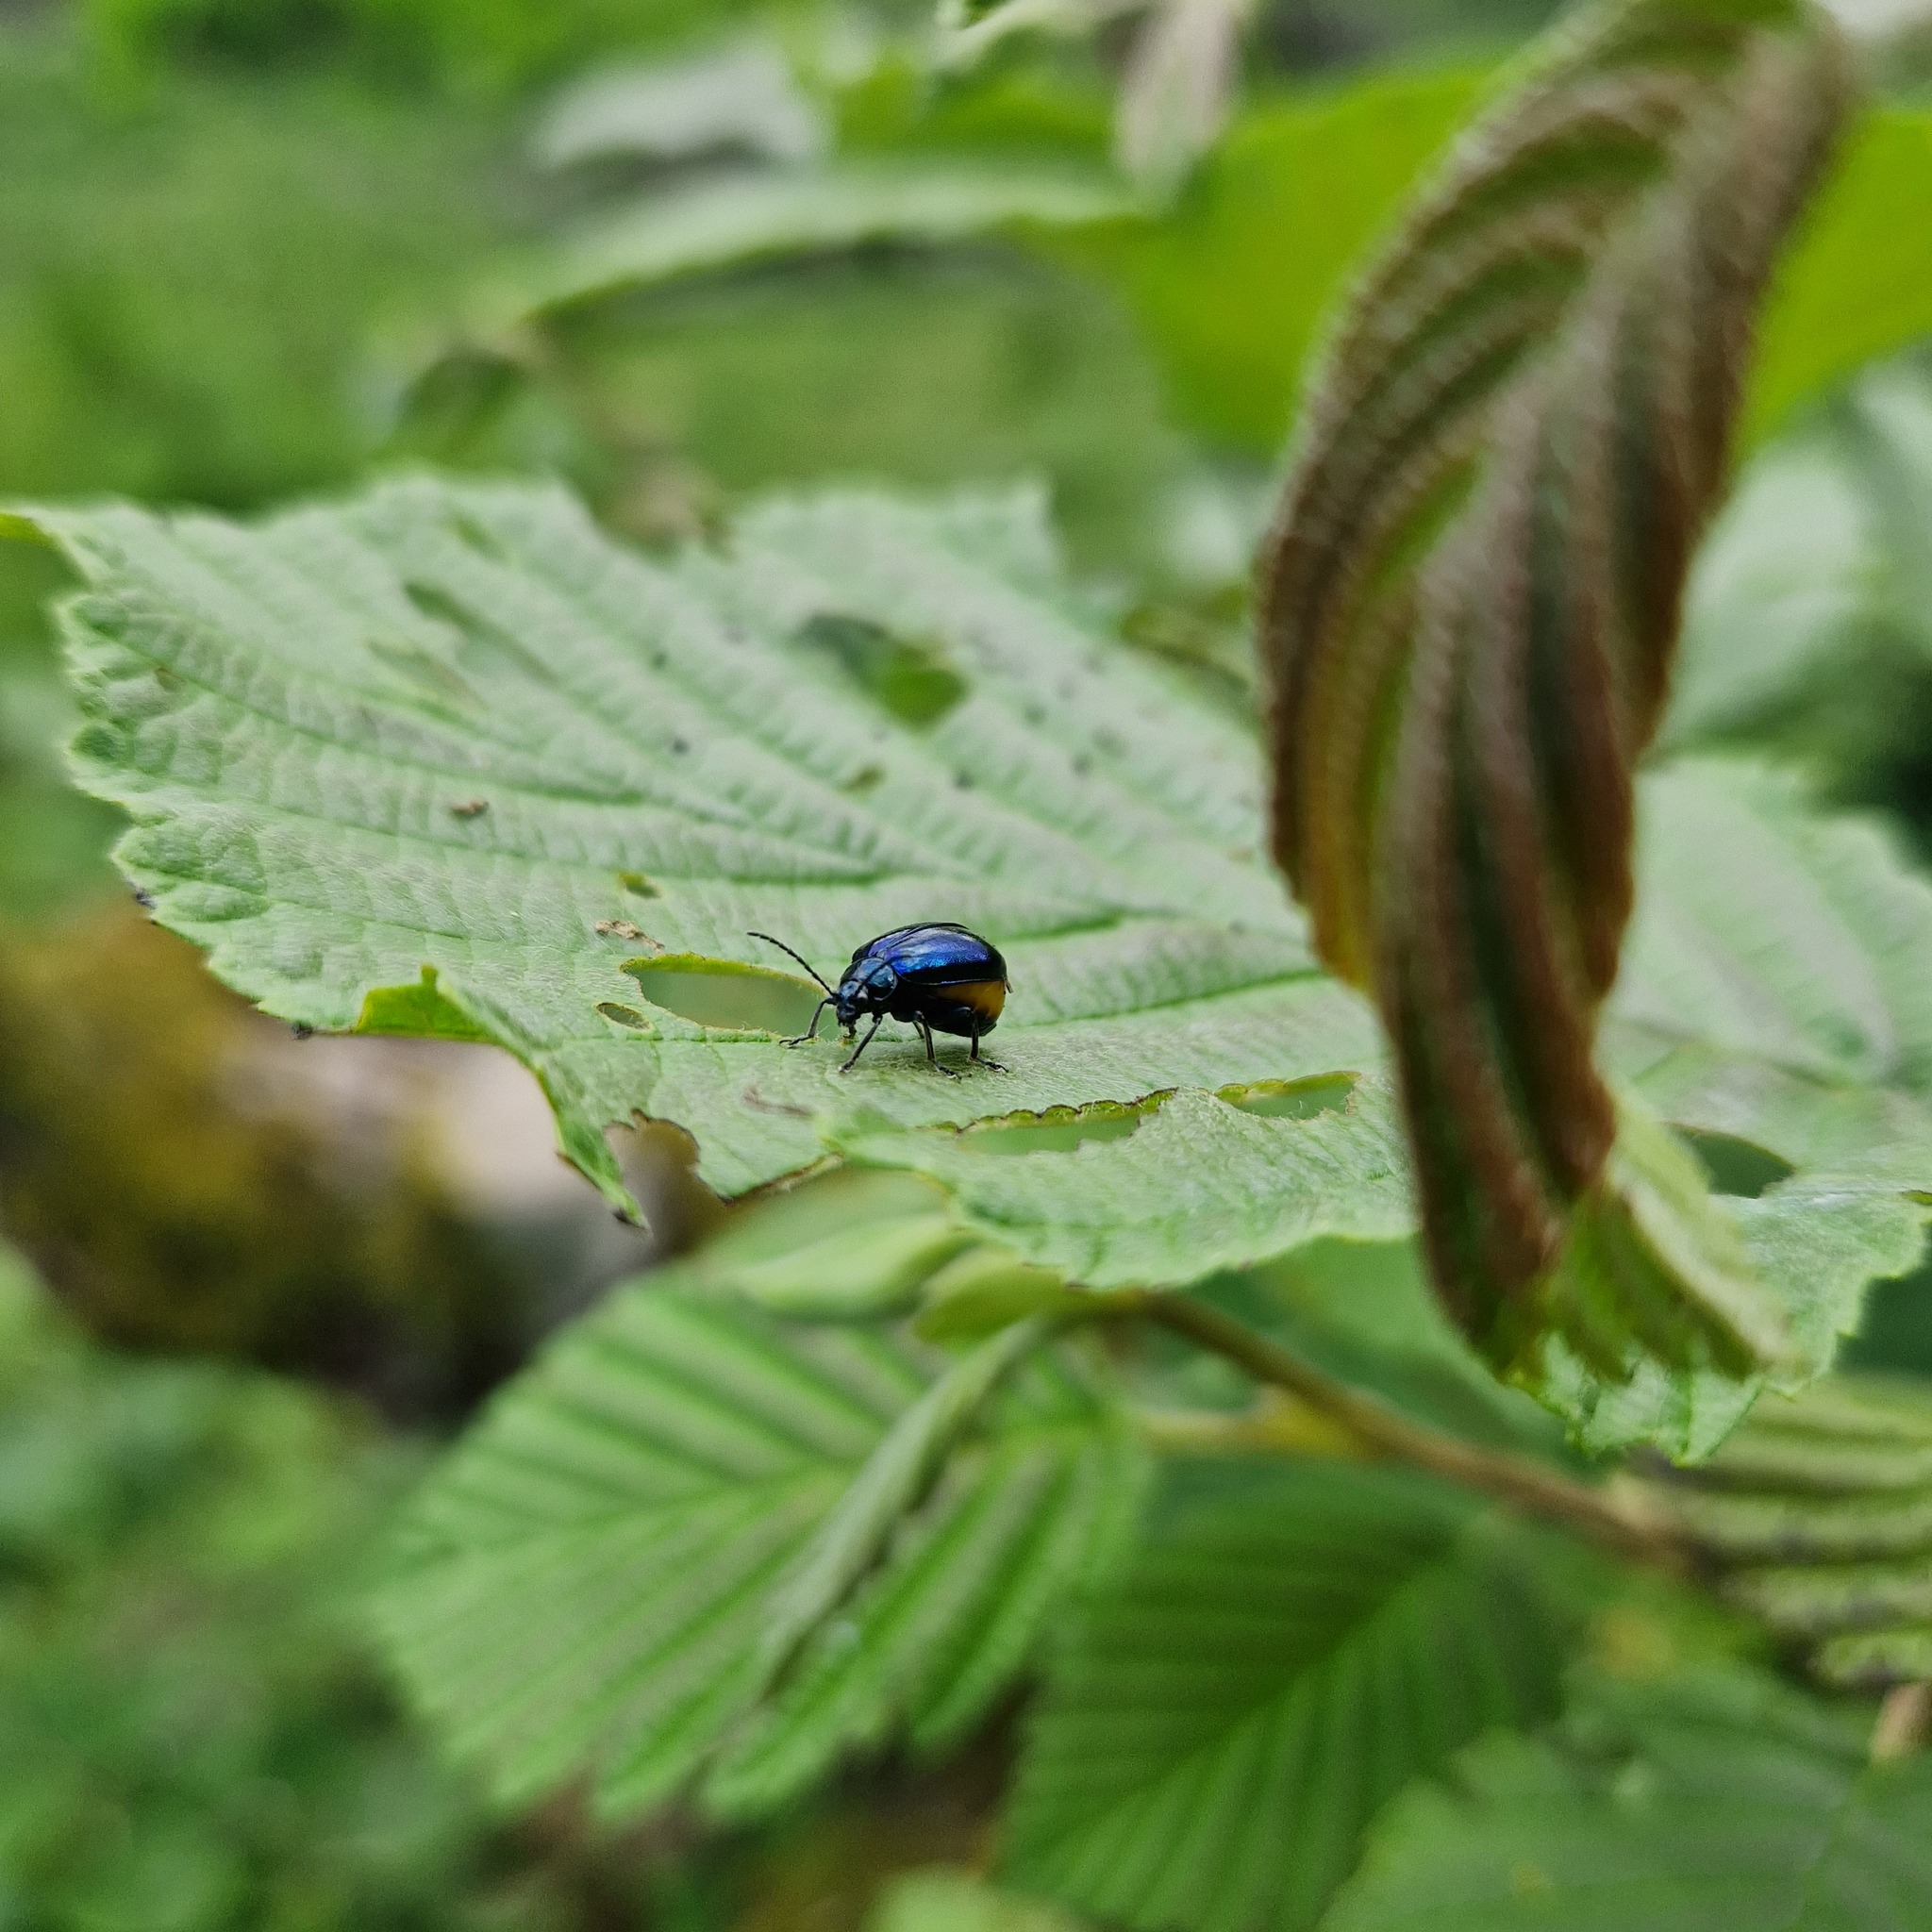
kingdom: Animalia
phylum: Arthropoda
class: Insecta
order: Coleoptera
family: Chrysomelidae
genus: Agelastica
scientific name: Agelastica alni
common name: Alder leaf beetle
